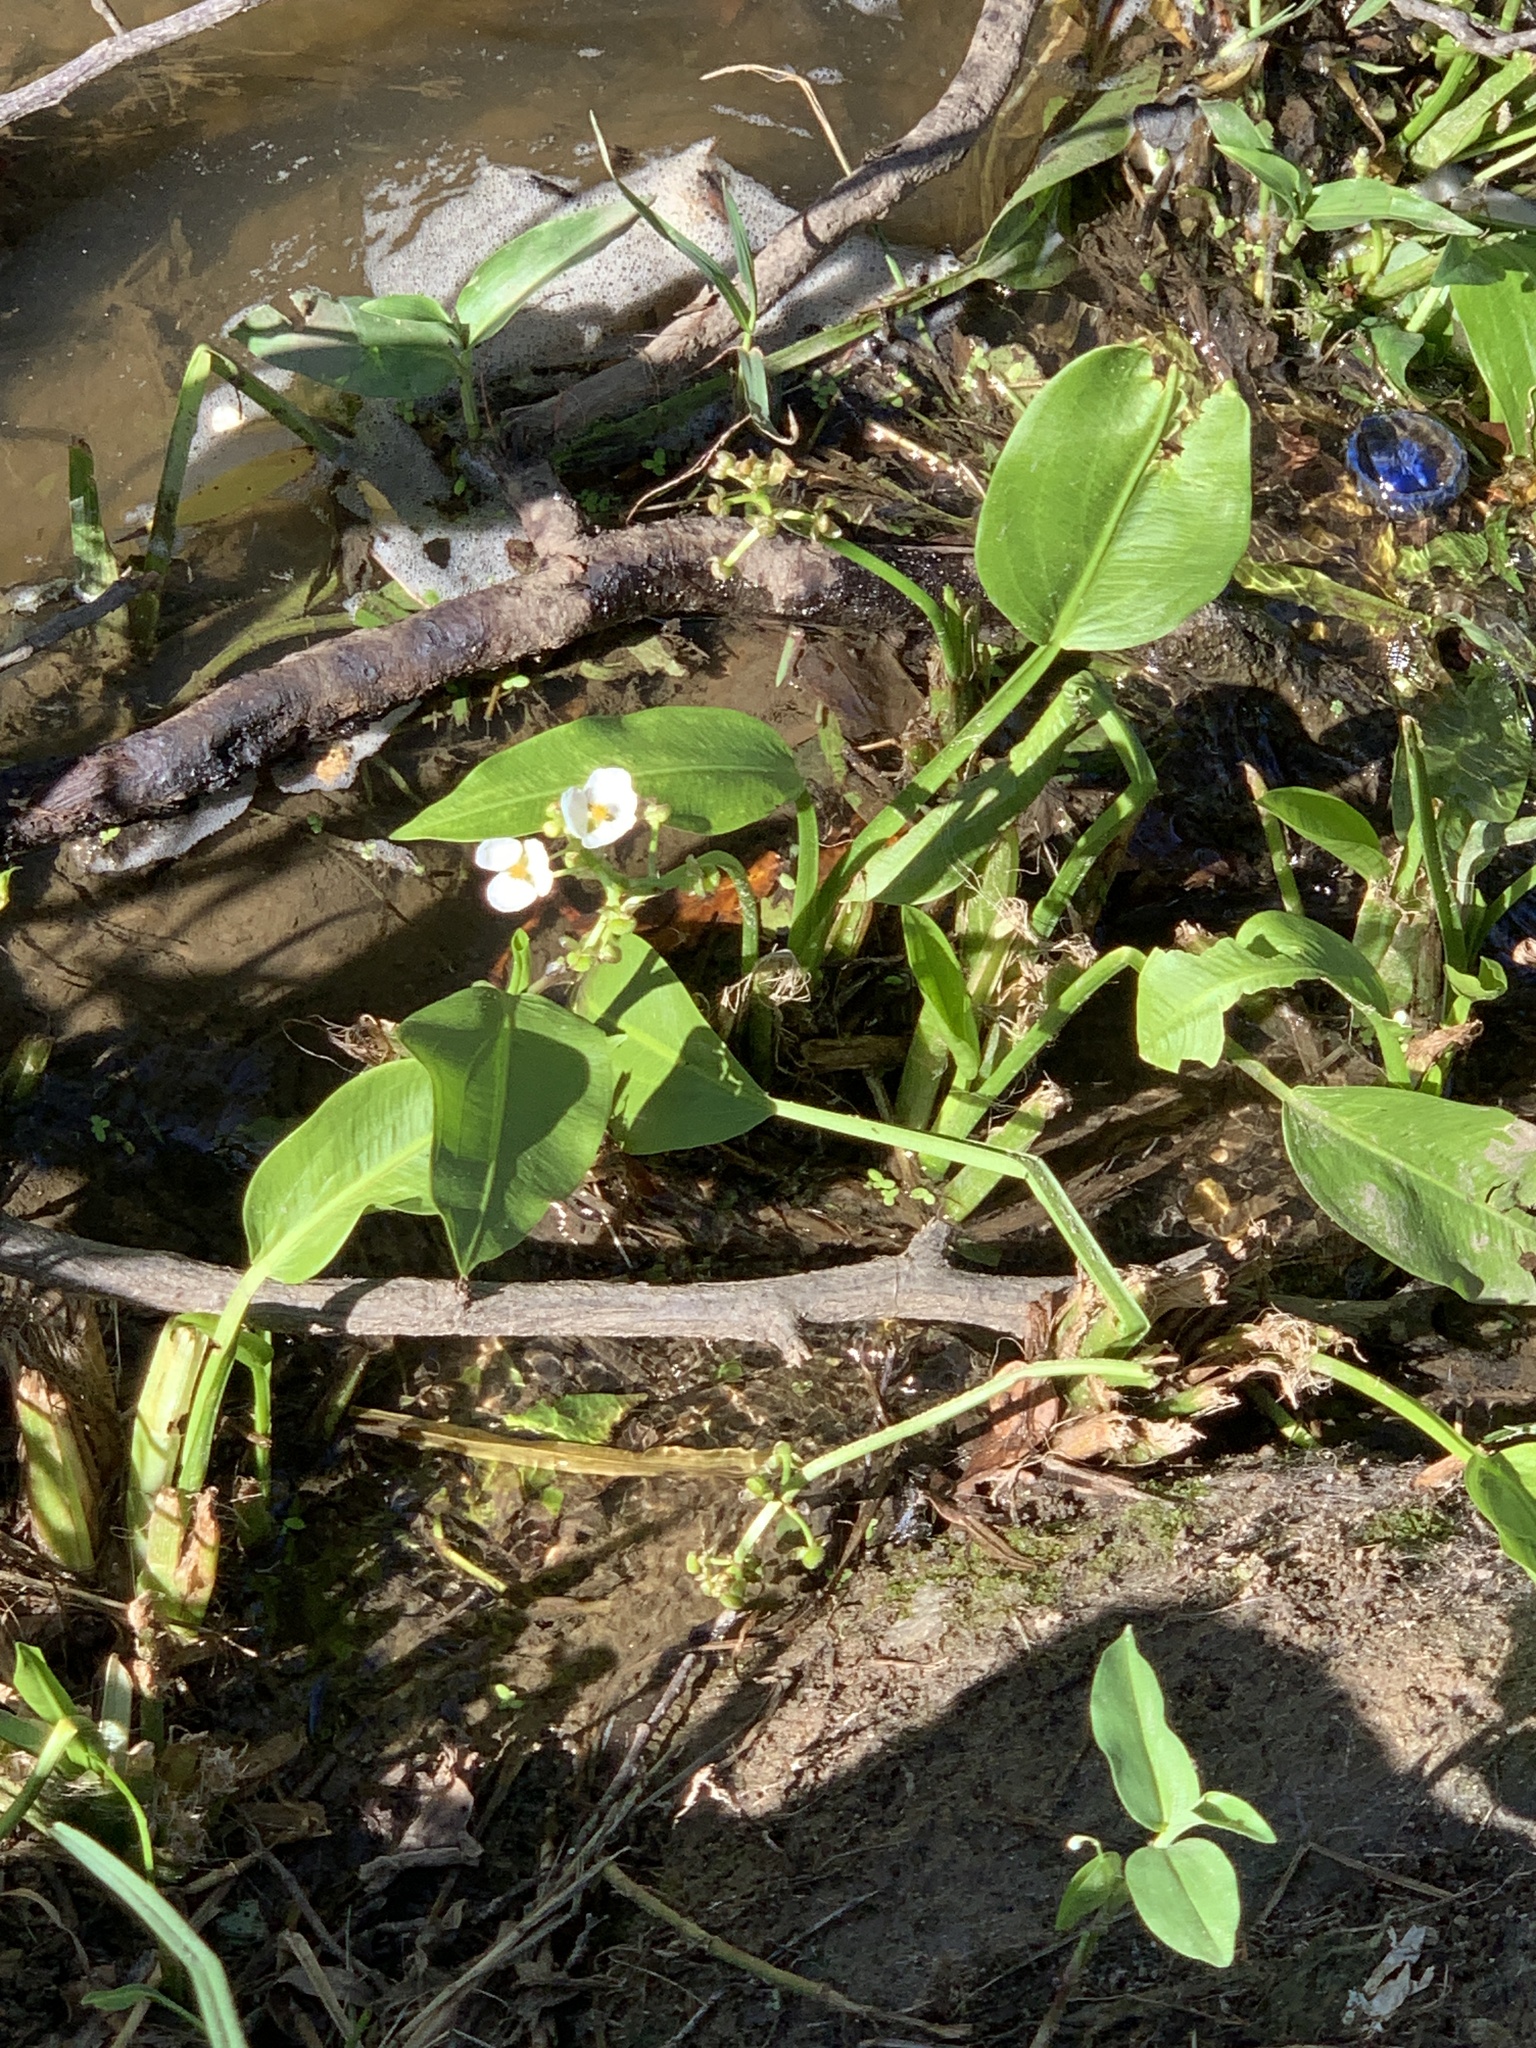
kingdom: Plantae
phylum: Tracheophyta
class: Liliopsida
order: Alismatales
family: Alismataceae
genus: Sagittaria
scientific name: Sagittaria platyphylla
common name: Broad-leaf arrowhead
